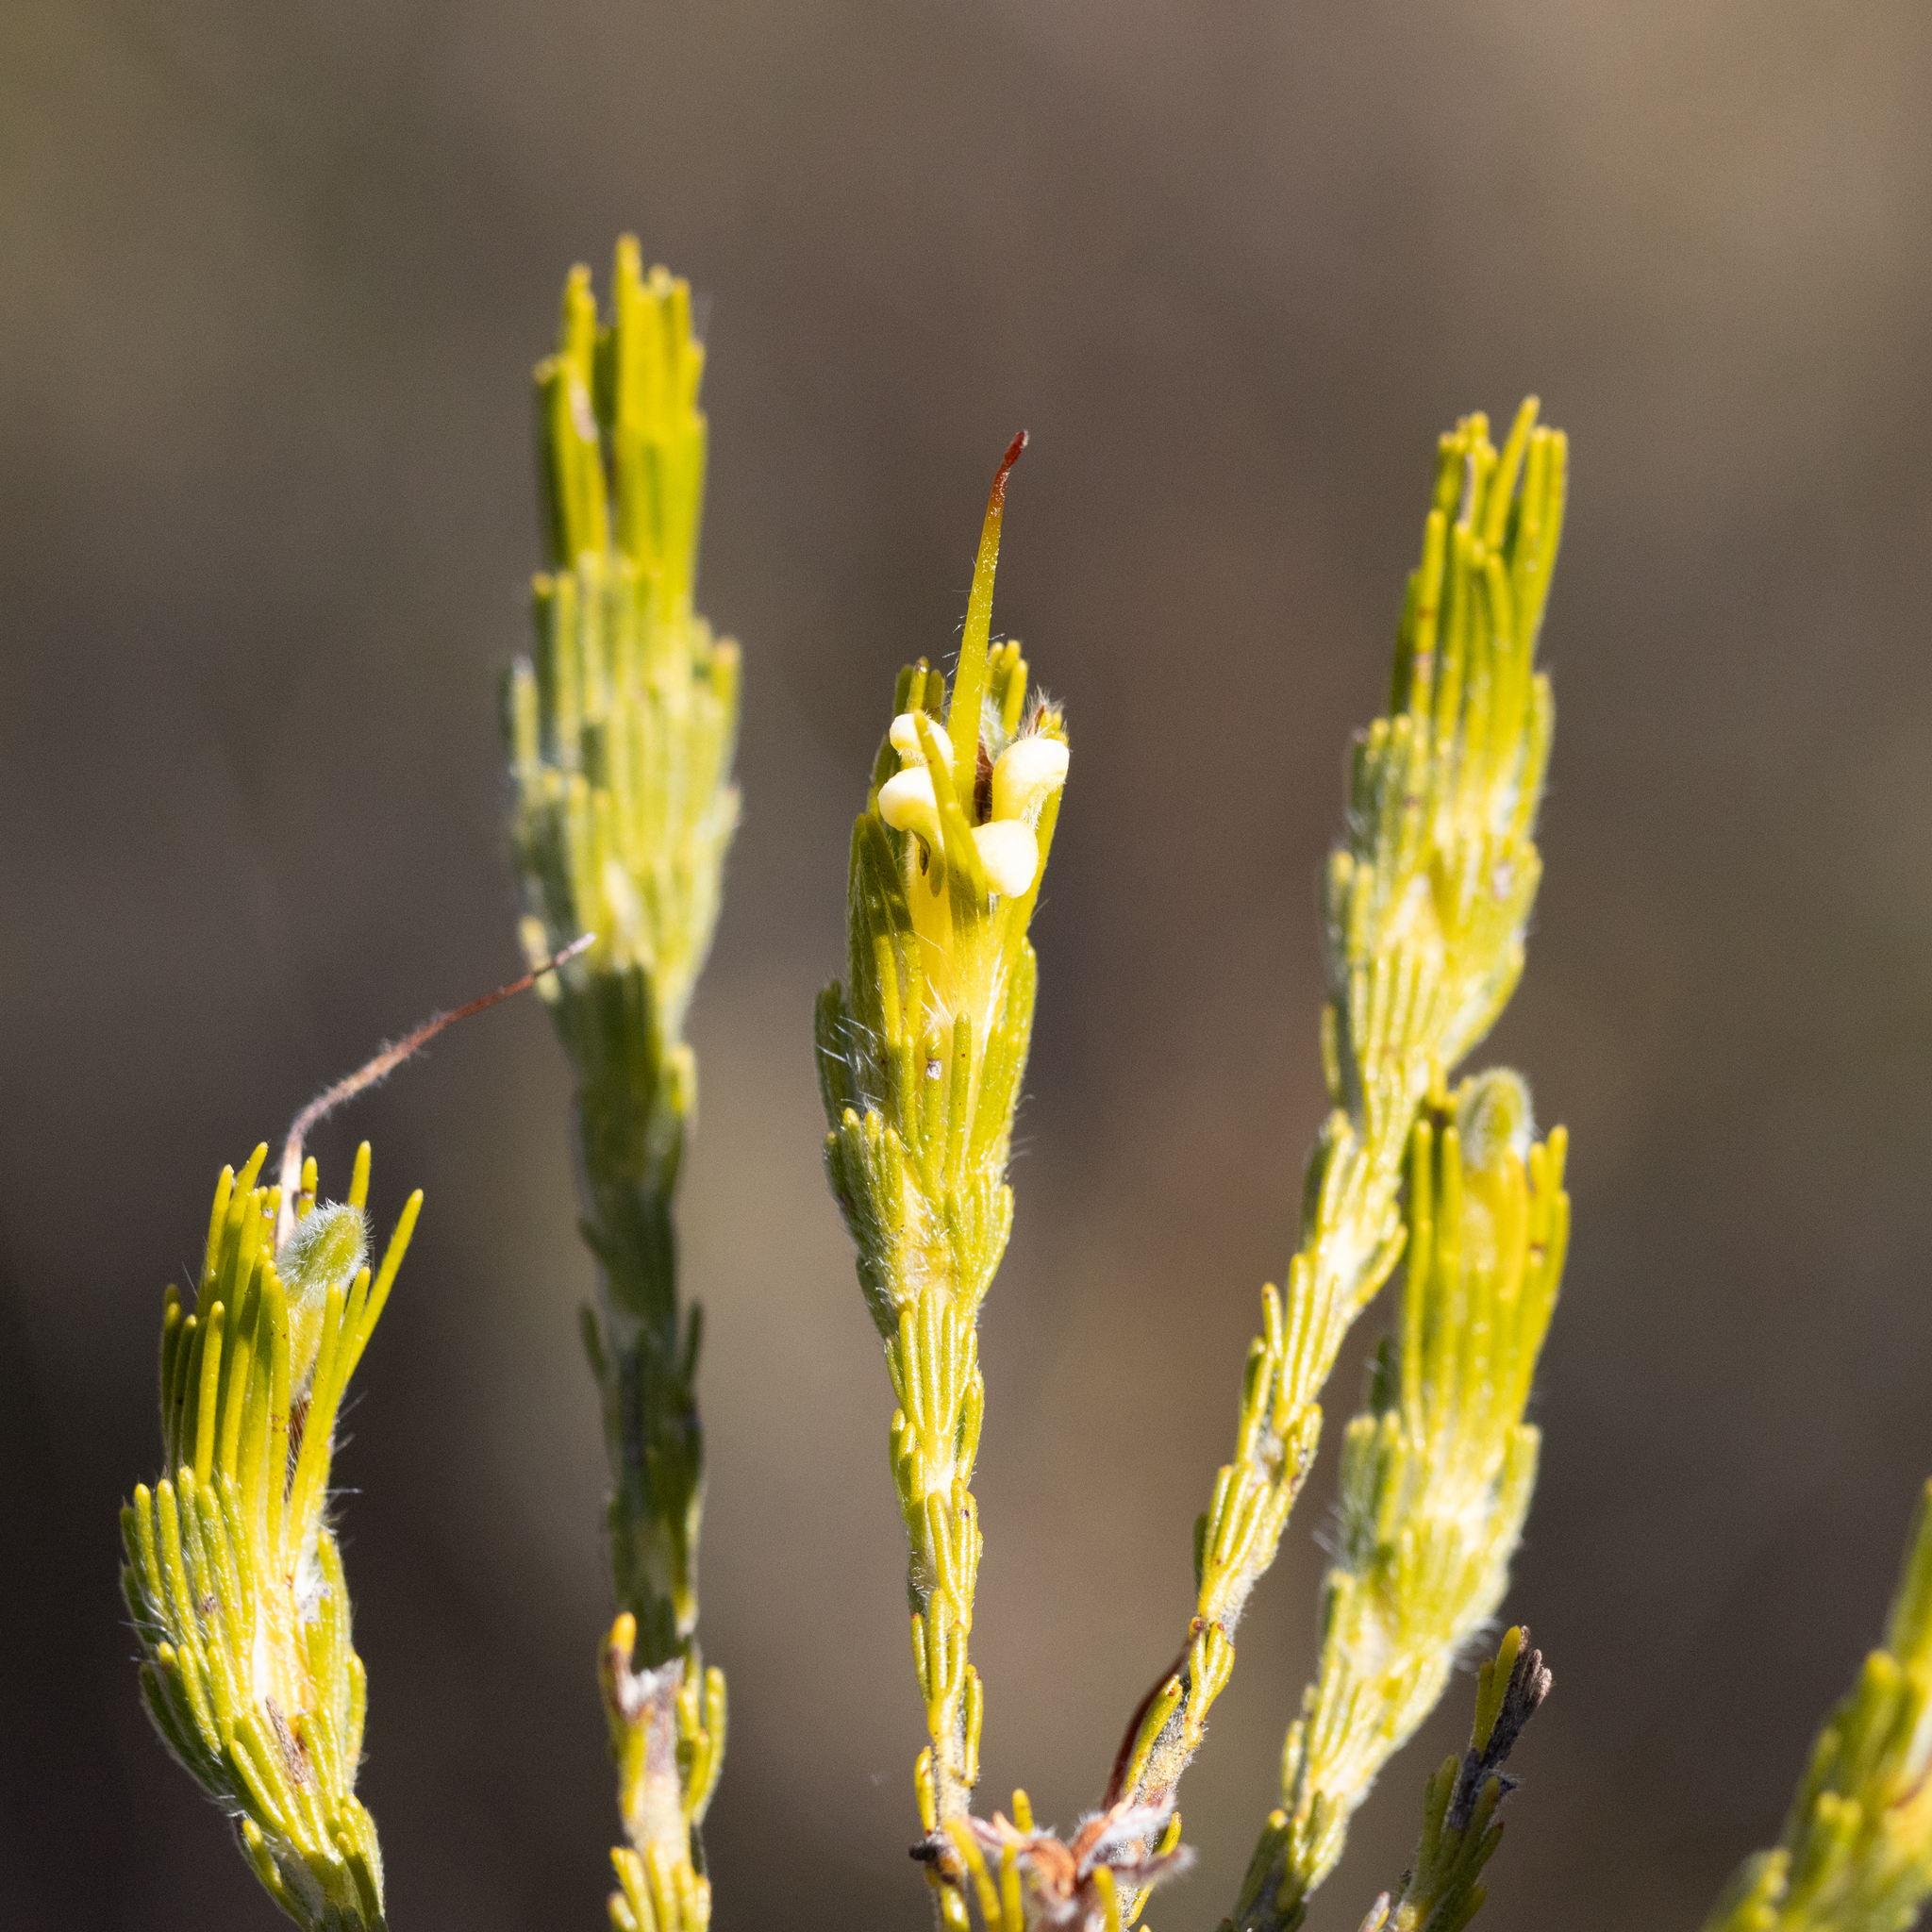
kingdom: Plantae
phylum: Tracheophyta
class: Magnoliopsida
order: Proteales
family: Proteaceae
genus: Adenanthos
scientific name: Adenanthos terminalis
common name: Yellow gland-flower
